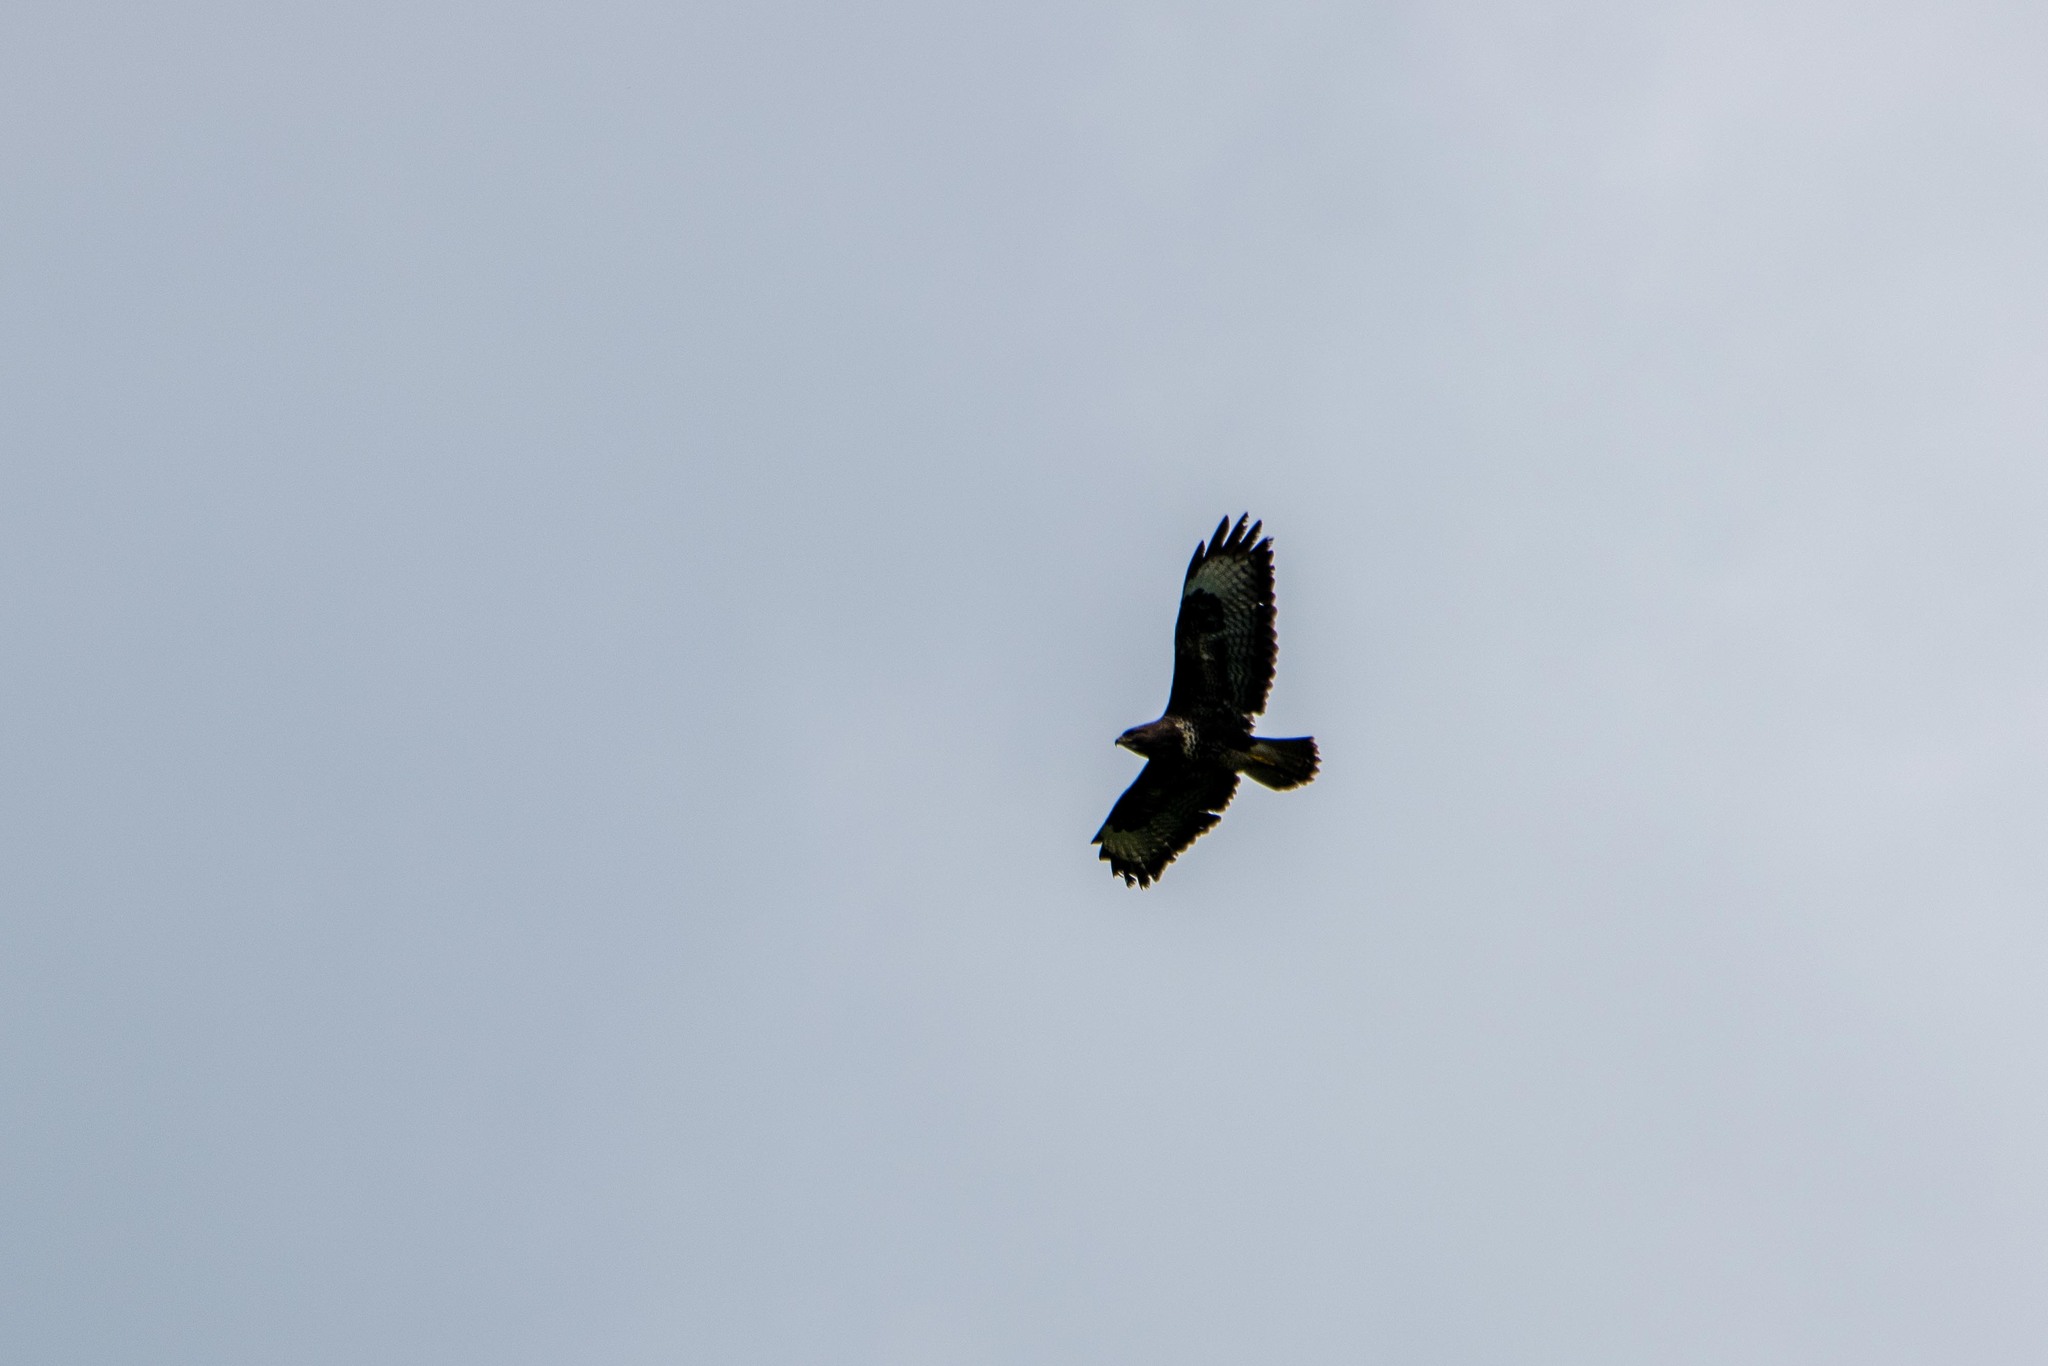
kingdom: Animalia
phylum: Chordata
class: Aves
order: Accipitriformes
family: Accipitridae
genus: Buteo
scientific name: Buteo buteo
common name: Common buzzard
